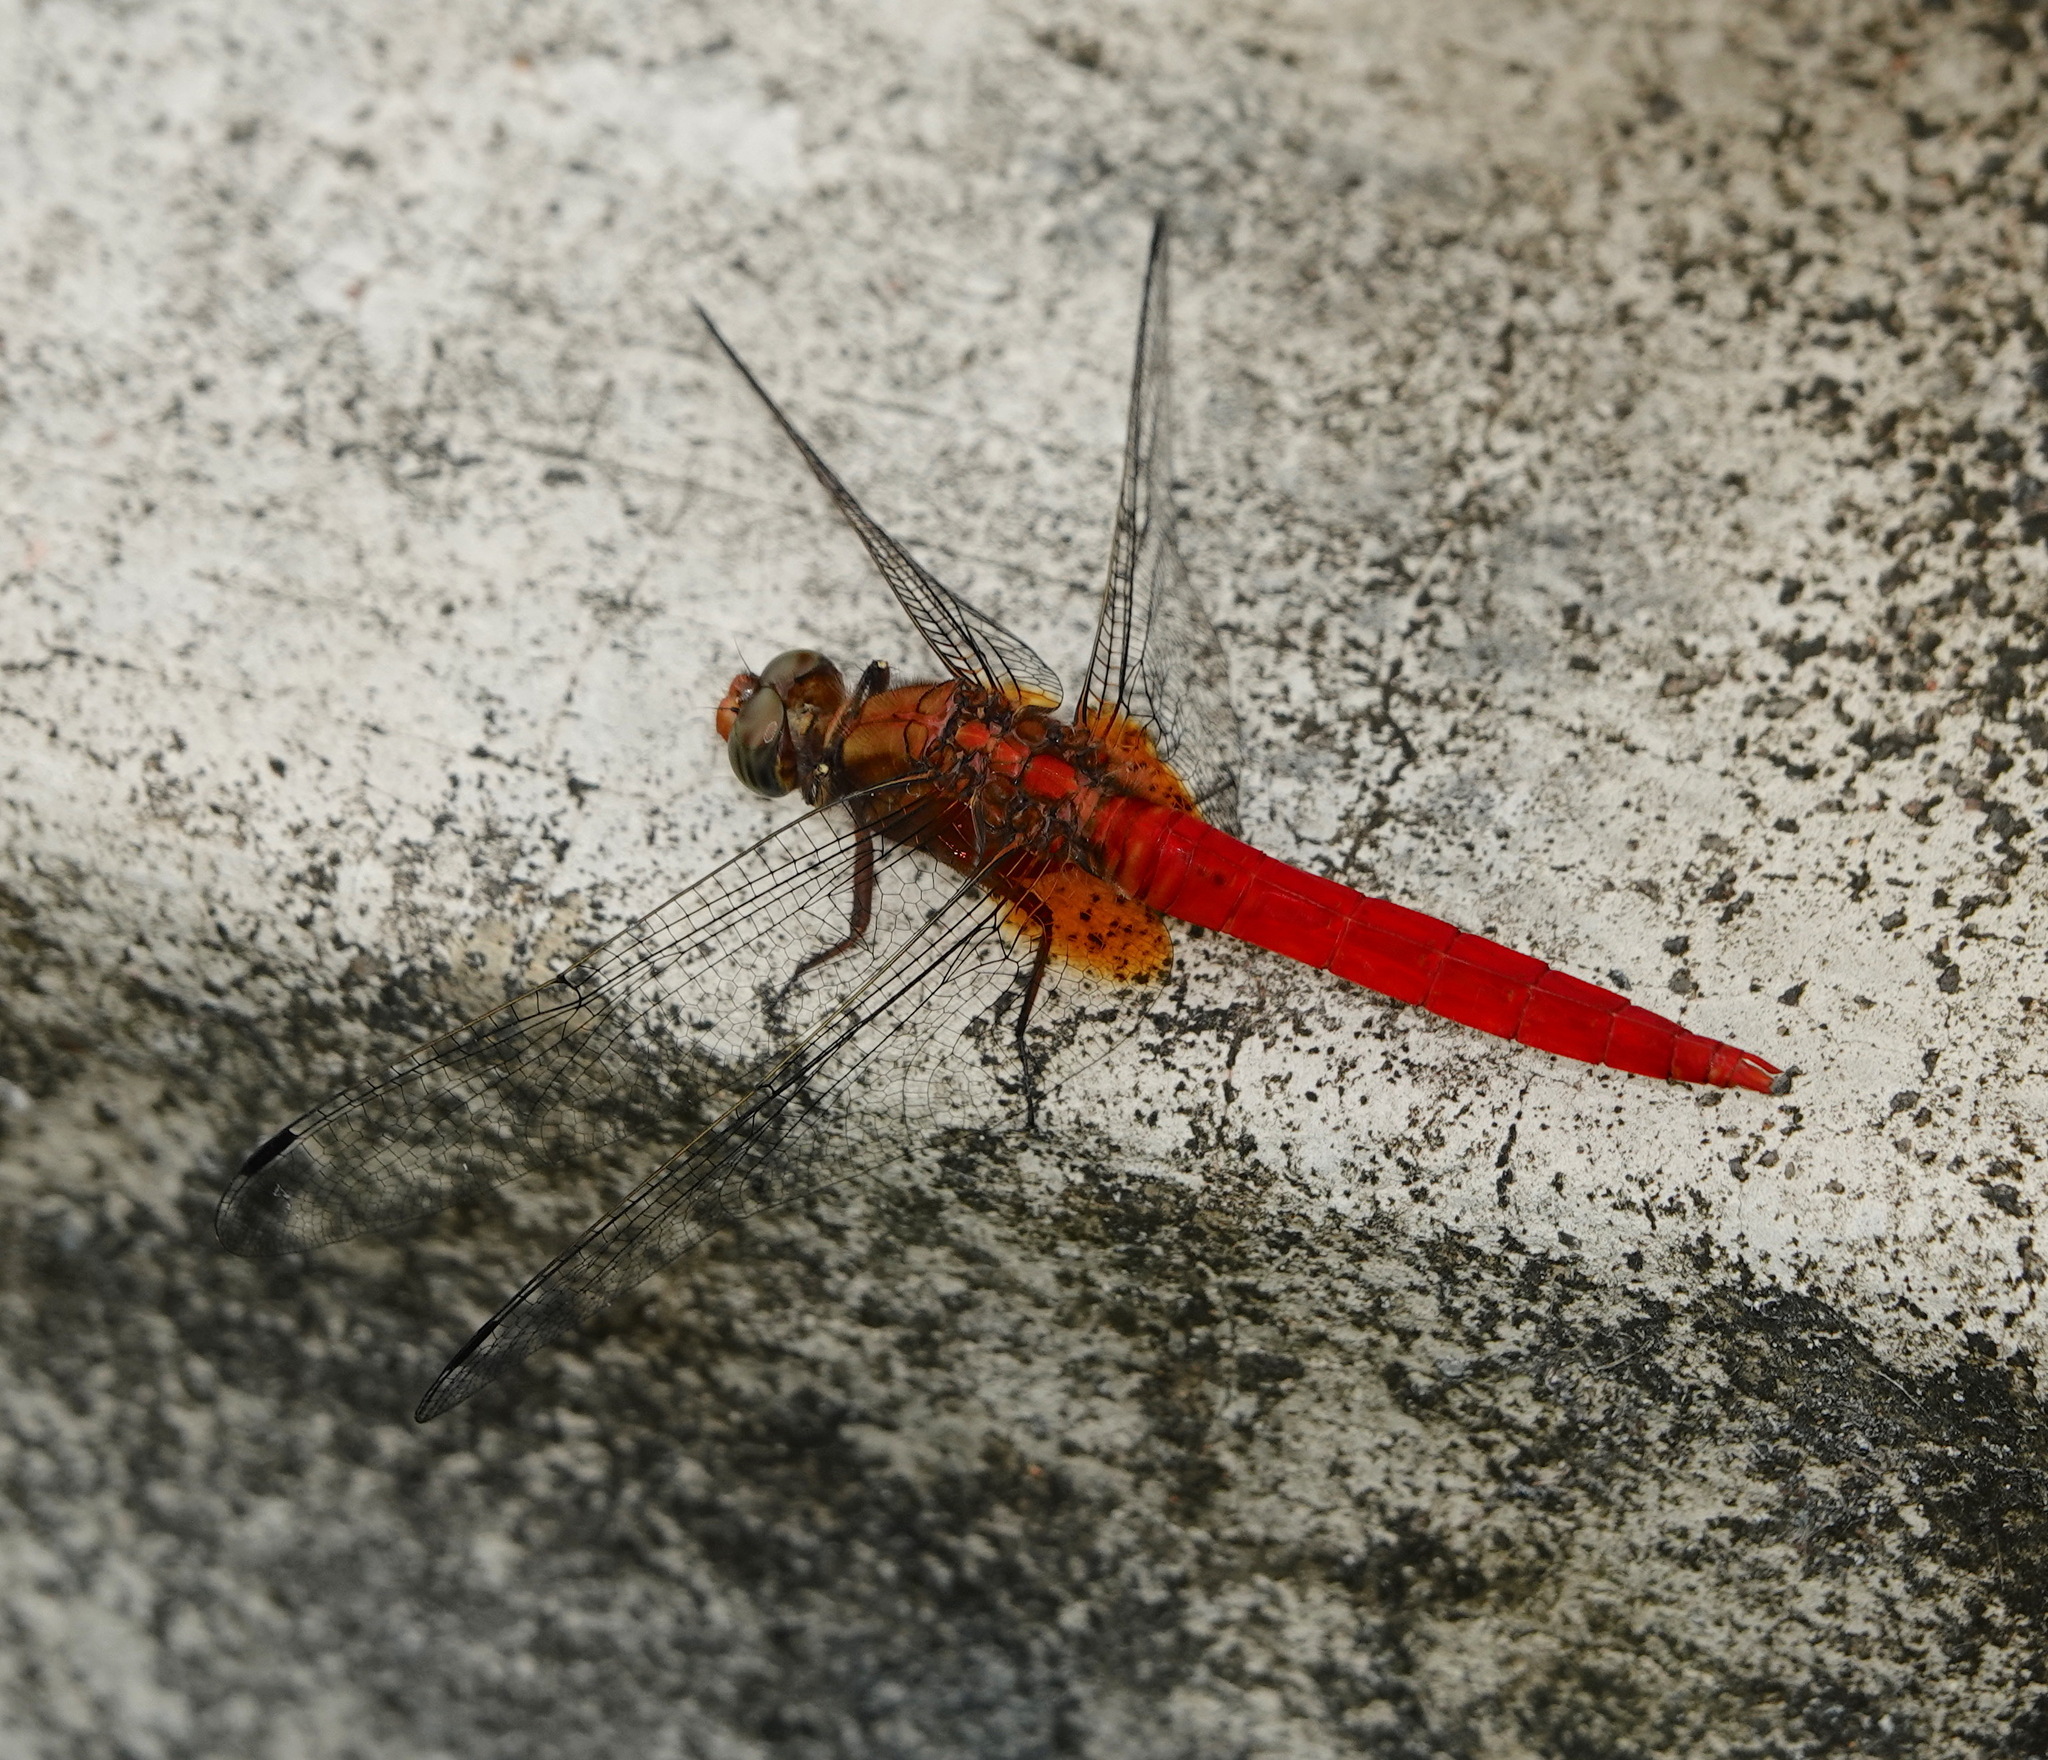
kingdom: Animalia
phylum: Arthropoda
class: Insecta
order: Odonata
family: Libellulidae
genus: Orthetrum
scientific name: Orthetrum testaceum
